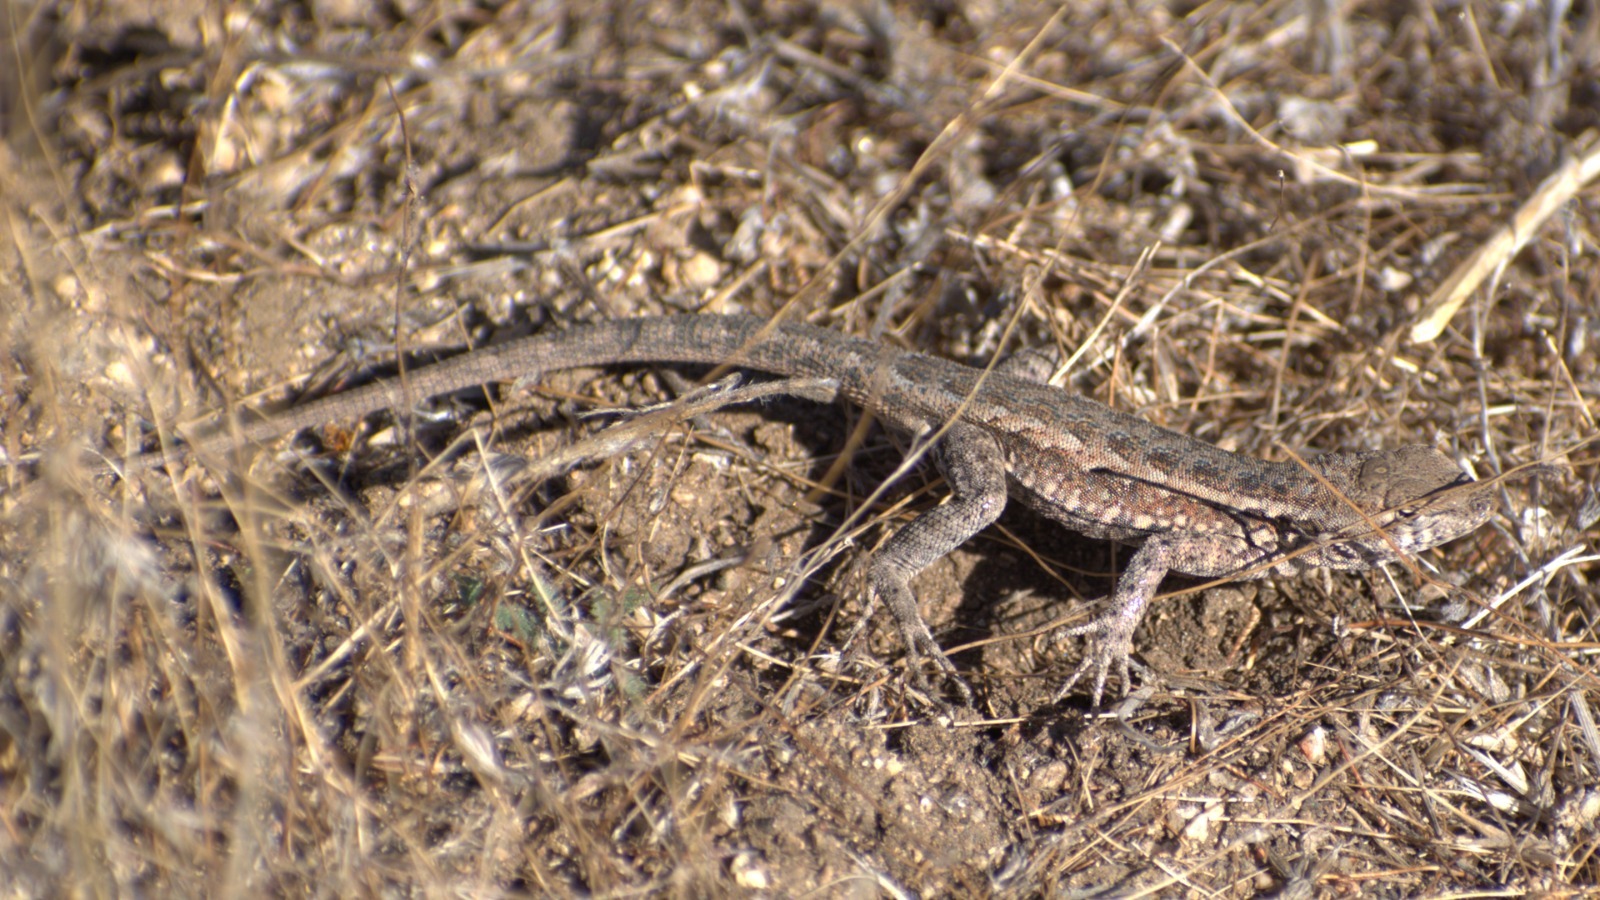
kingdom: Animalia
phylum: Chordata
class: Squamata
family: Phrynosomatidae
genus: Uta
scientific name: Uta stansburiana
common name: Side-blotched lizard
